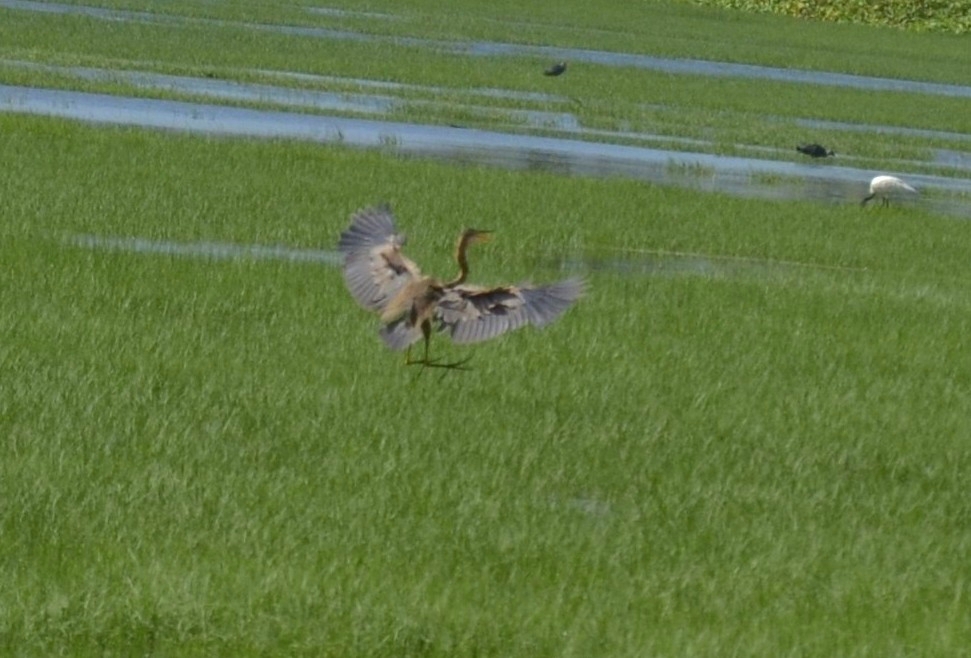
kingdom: Animalia
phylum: Chordata
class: Aves
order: Pelecaniformes
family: Ardeidae
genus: Ardea
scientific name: Ardea purpurea
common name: Purple heron
